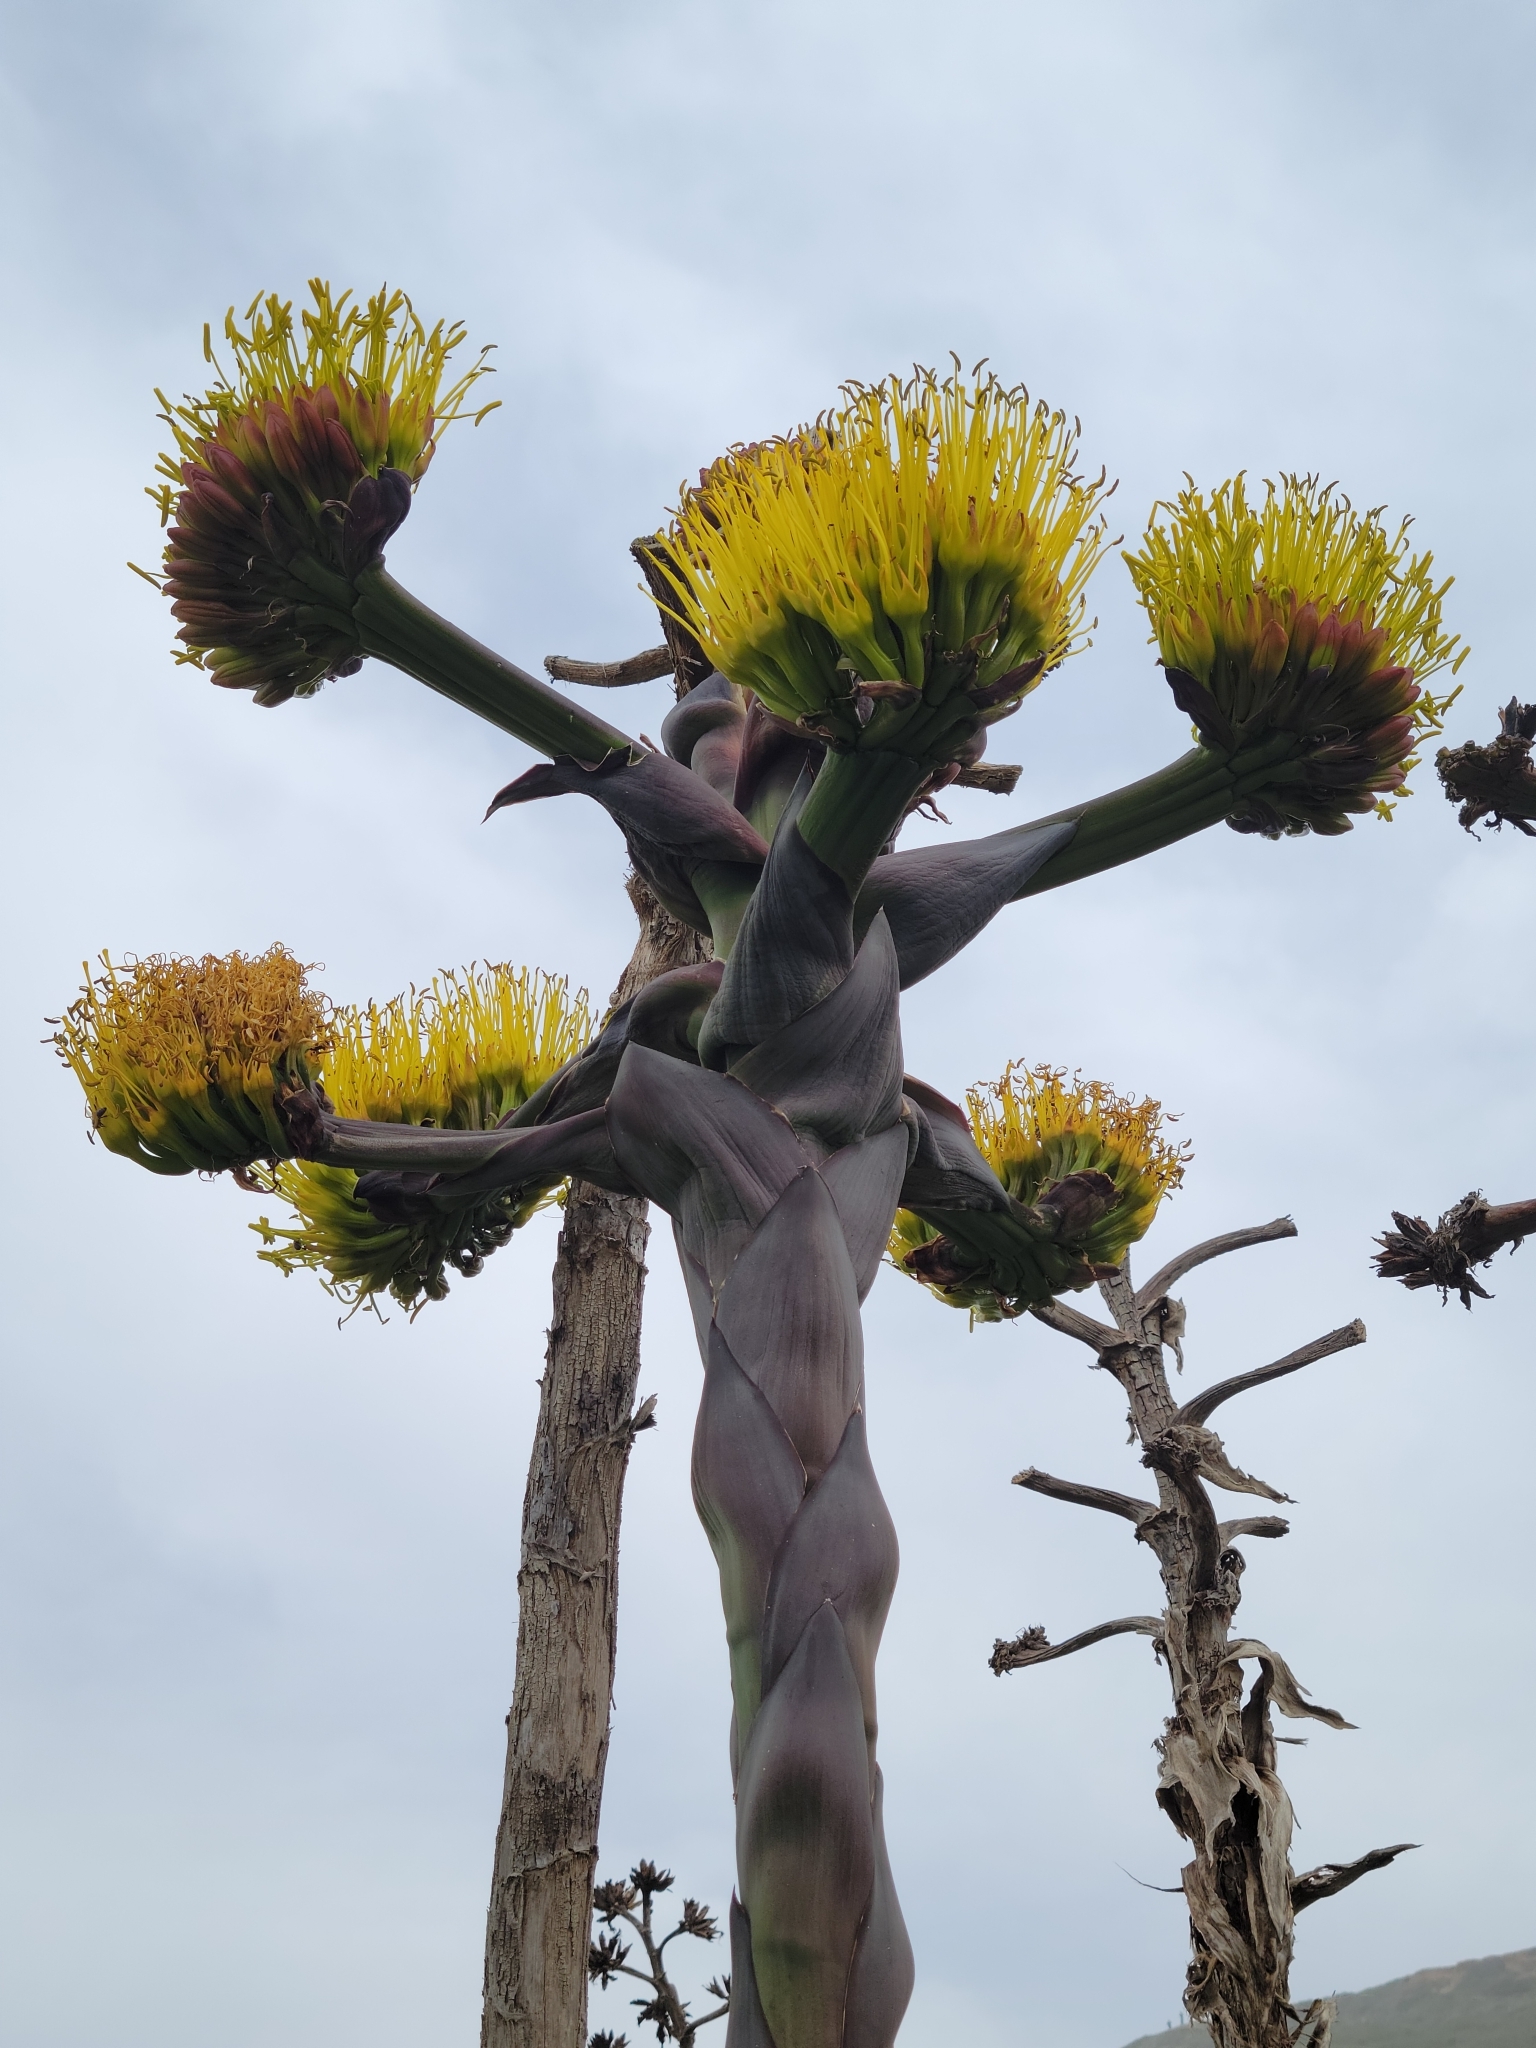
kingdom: Plantae
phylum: Tracheophyta
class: Liliopsida
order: Asparagales
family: Asparagaceae
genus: Agave
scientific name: Agave shawii
